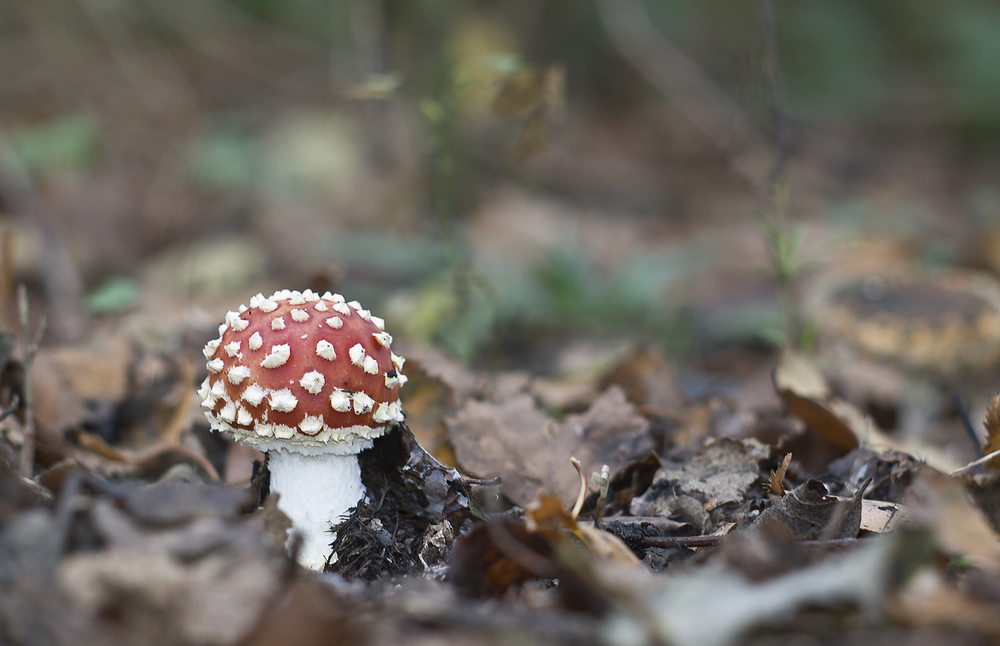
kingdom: Fungi
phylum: Basidiomycota
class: Agaricomycetes
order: Agaricales
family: Amanitaceae
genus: Amanita
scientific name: Amanita muscaria
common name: Fly agaric
